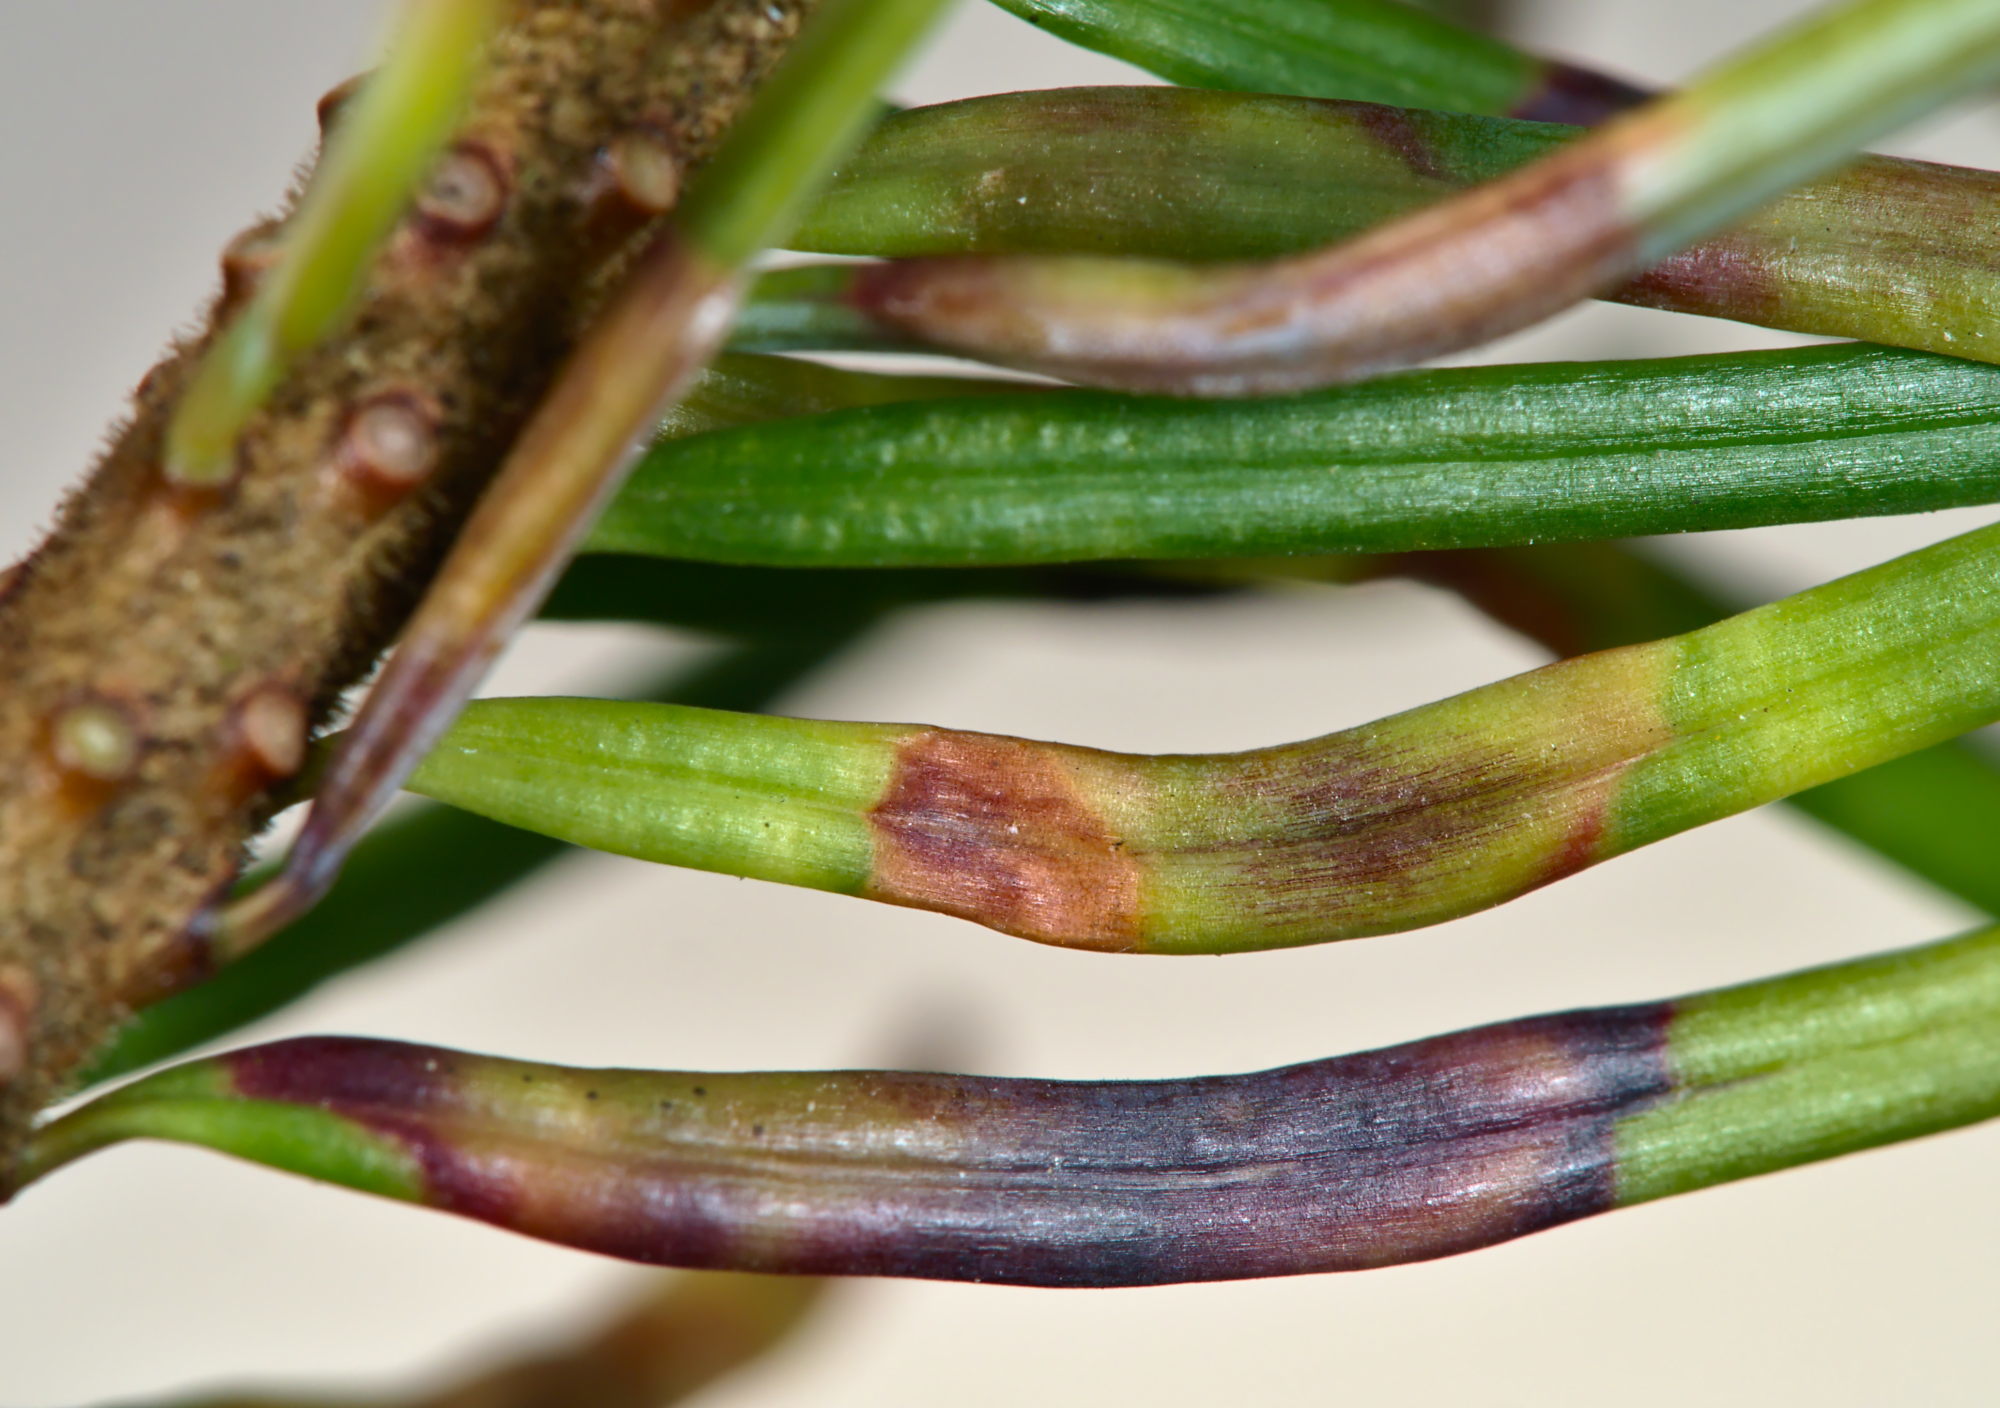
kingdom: Animalia
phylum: Arthropoda
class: Insecta
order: Diptera
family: Cecidomyiidae
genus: Contarinia
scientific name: Contarinia pseudotsugae
